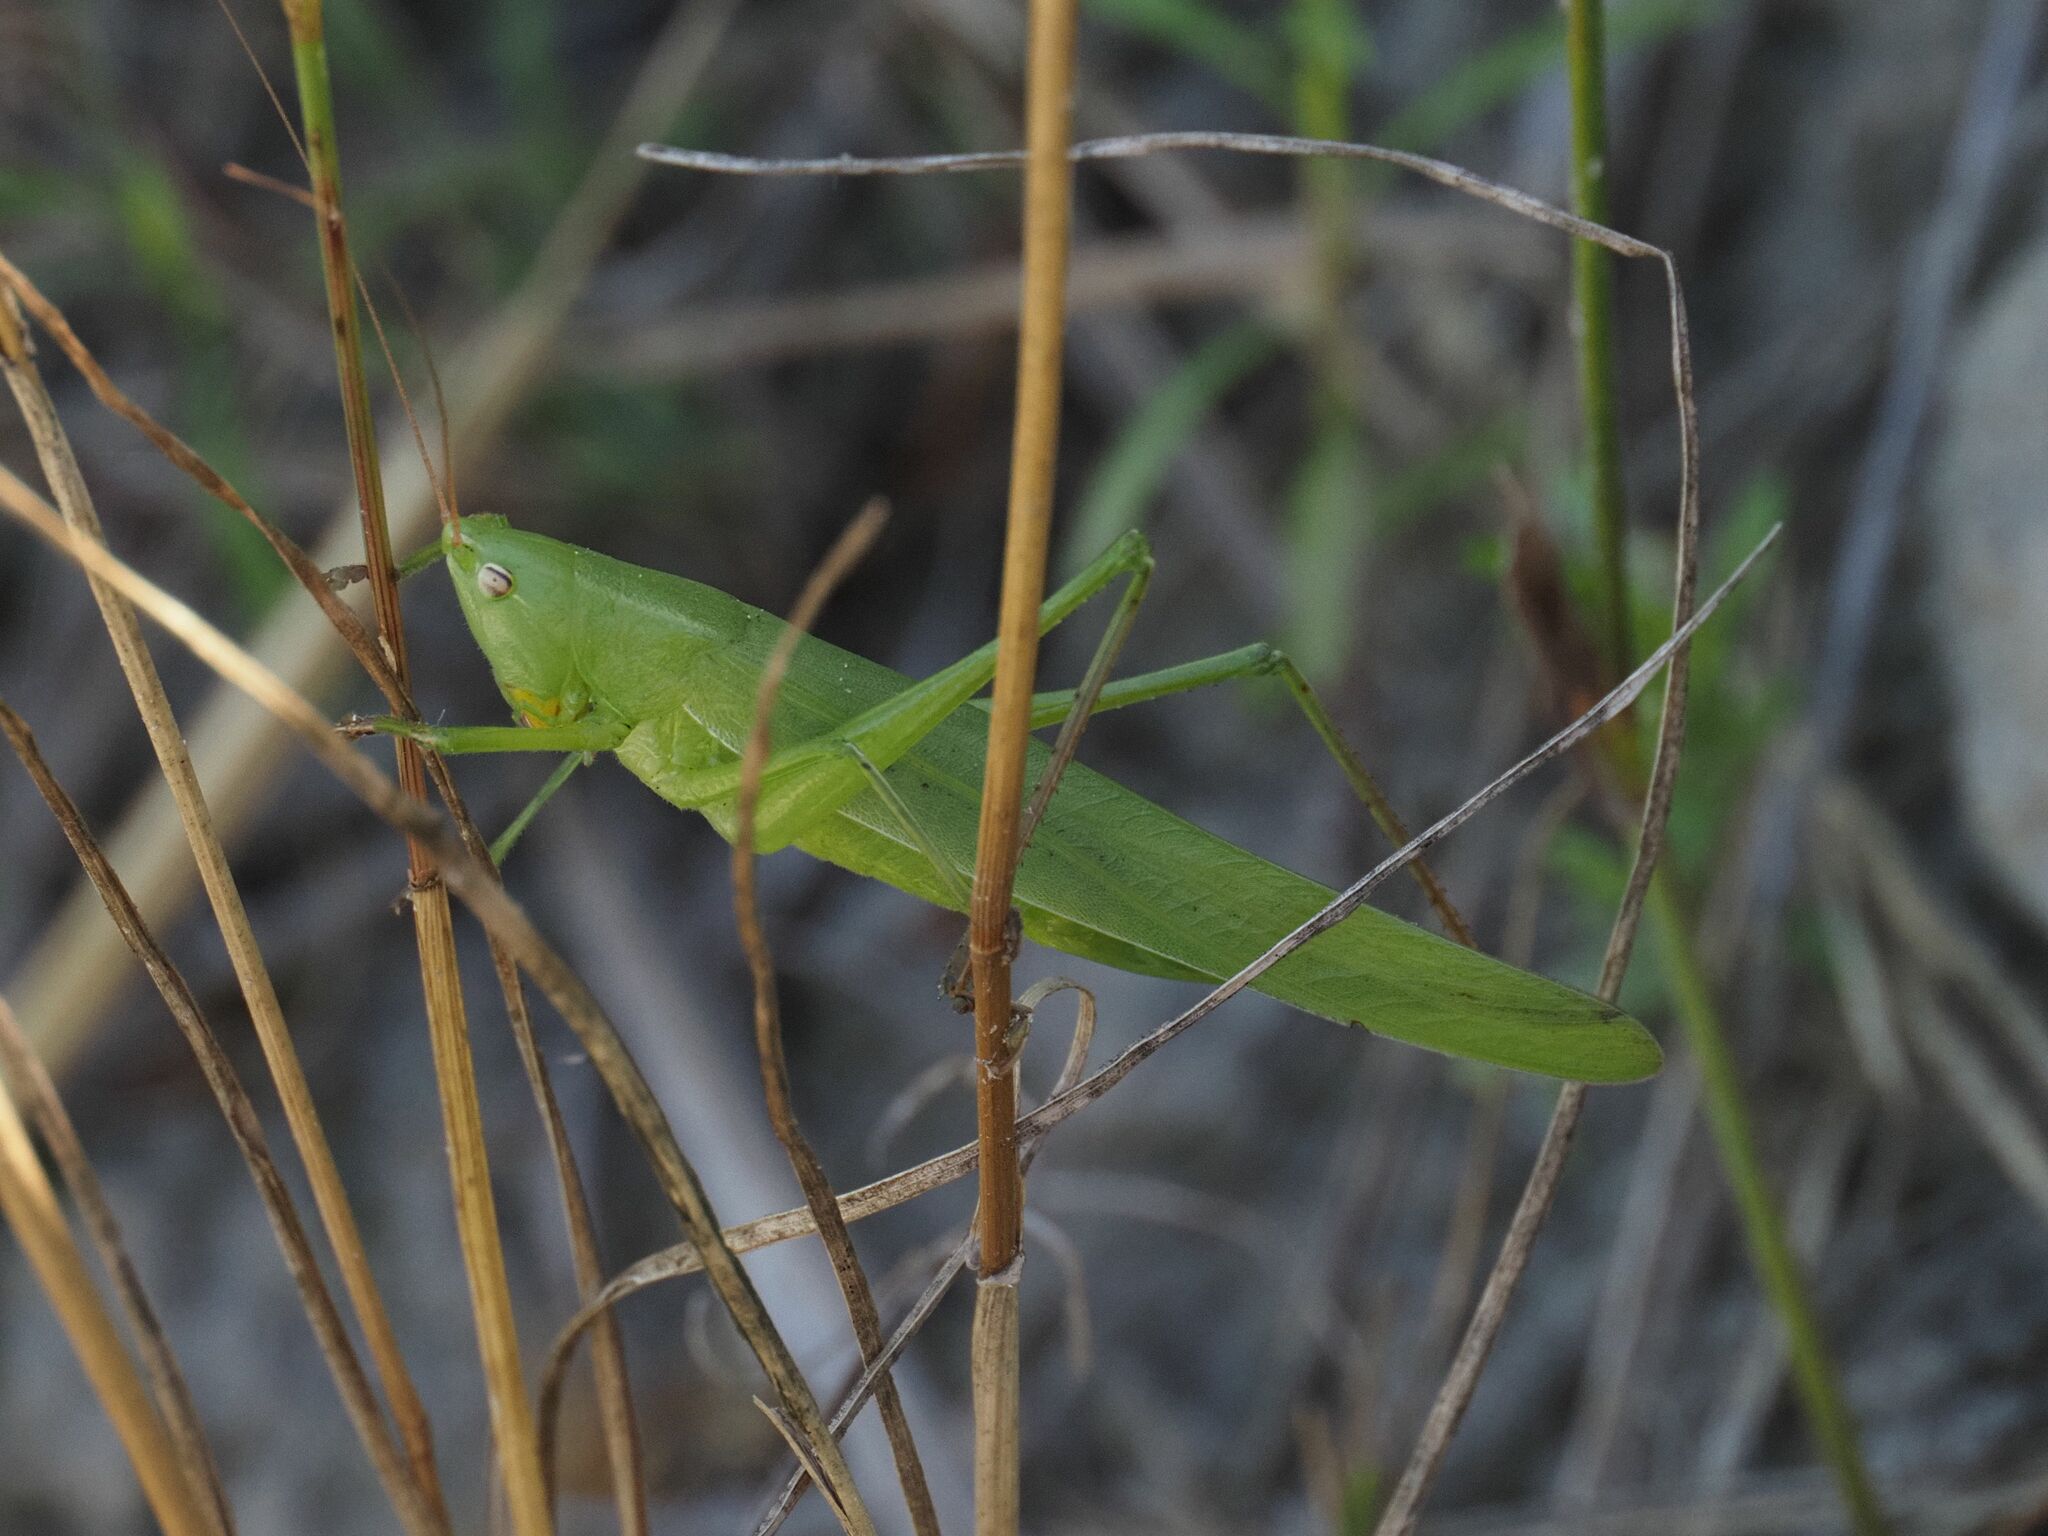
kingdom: Animalia
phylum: Arthropoda
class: Insecta
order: Orthoptera
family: Tettigoniidae
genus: Ruspolia
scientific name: Ruspolia nitidula
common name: Large conehead
